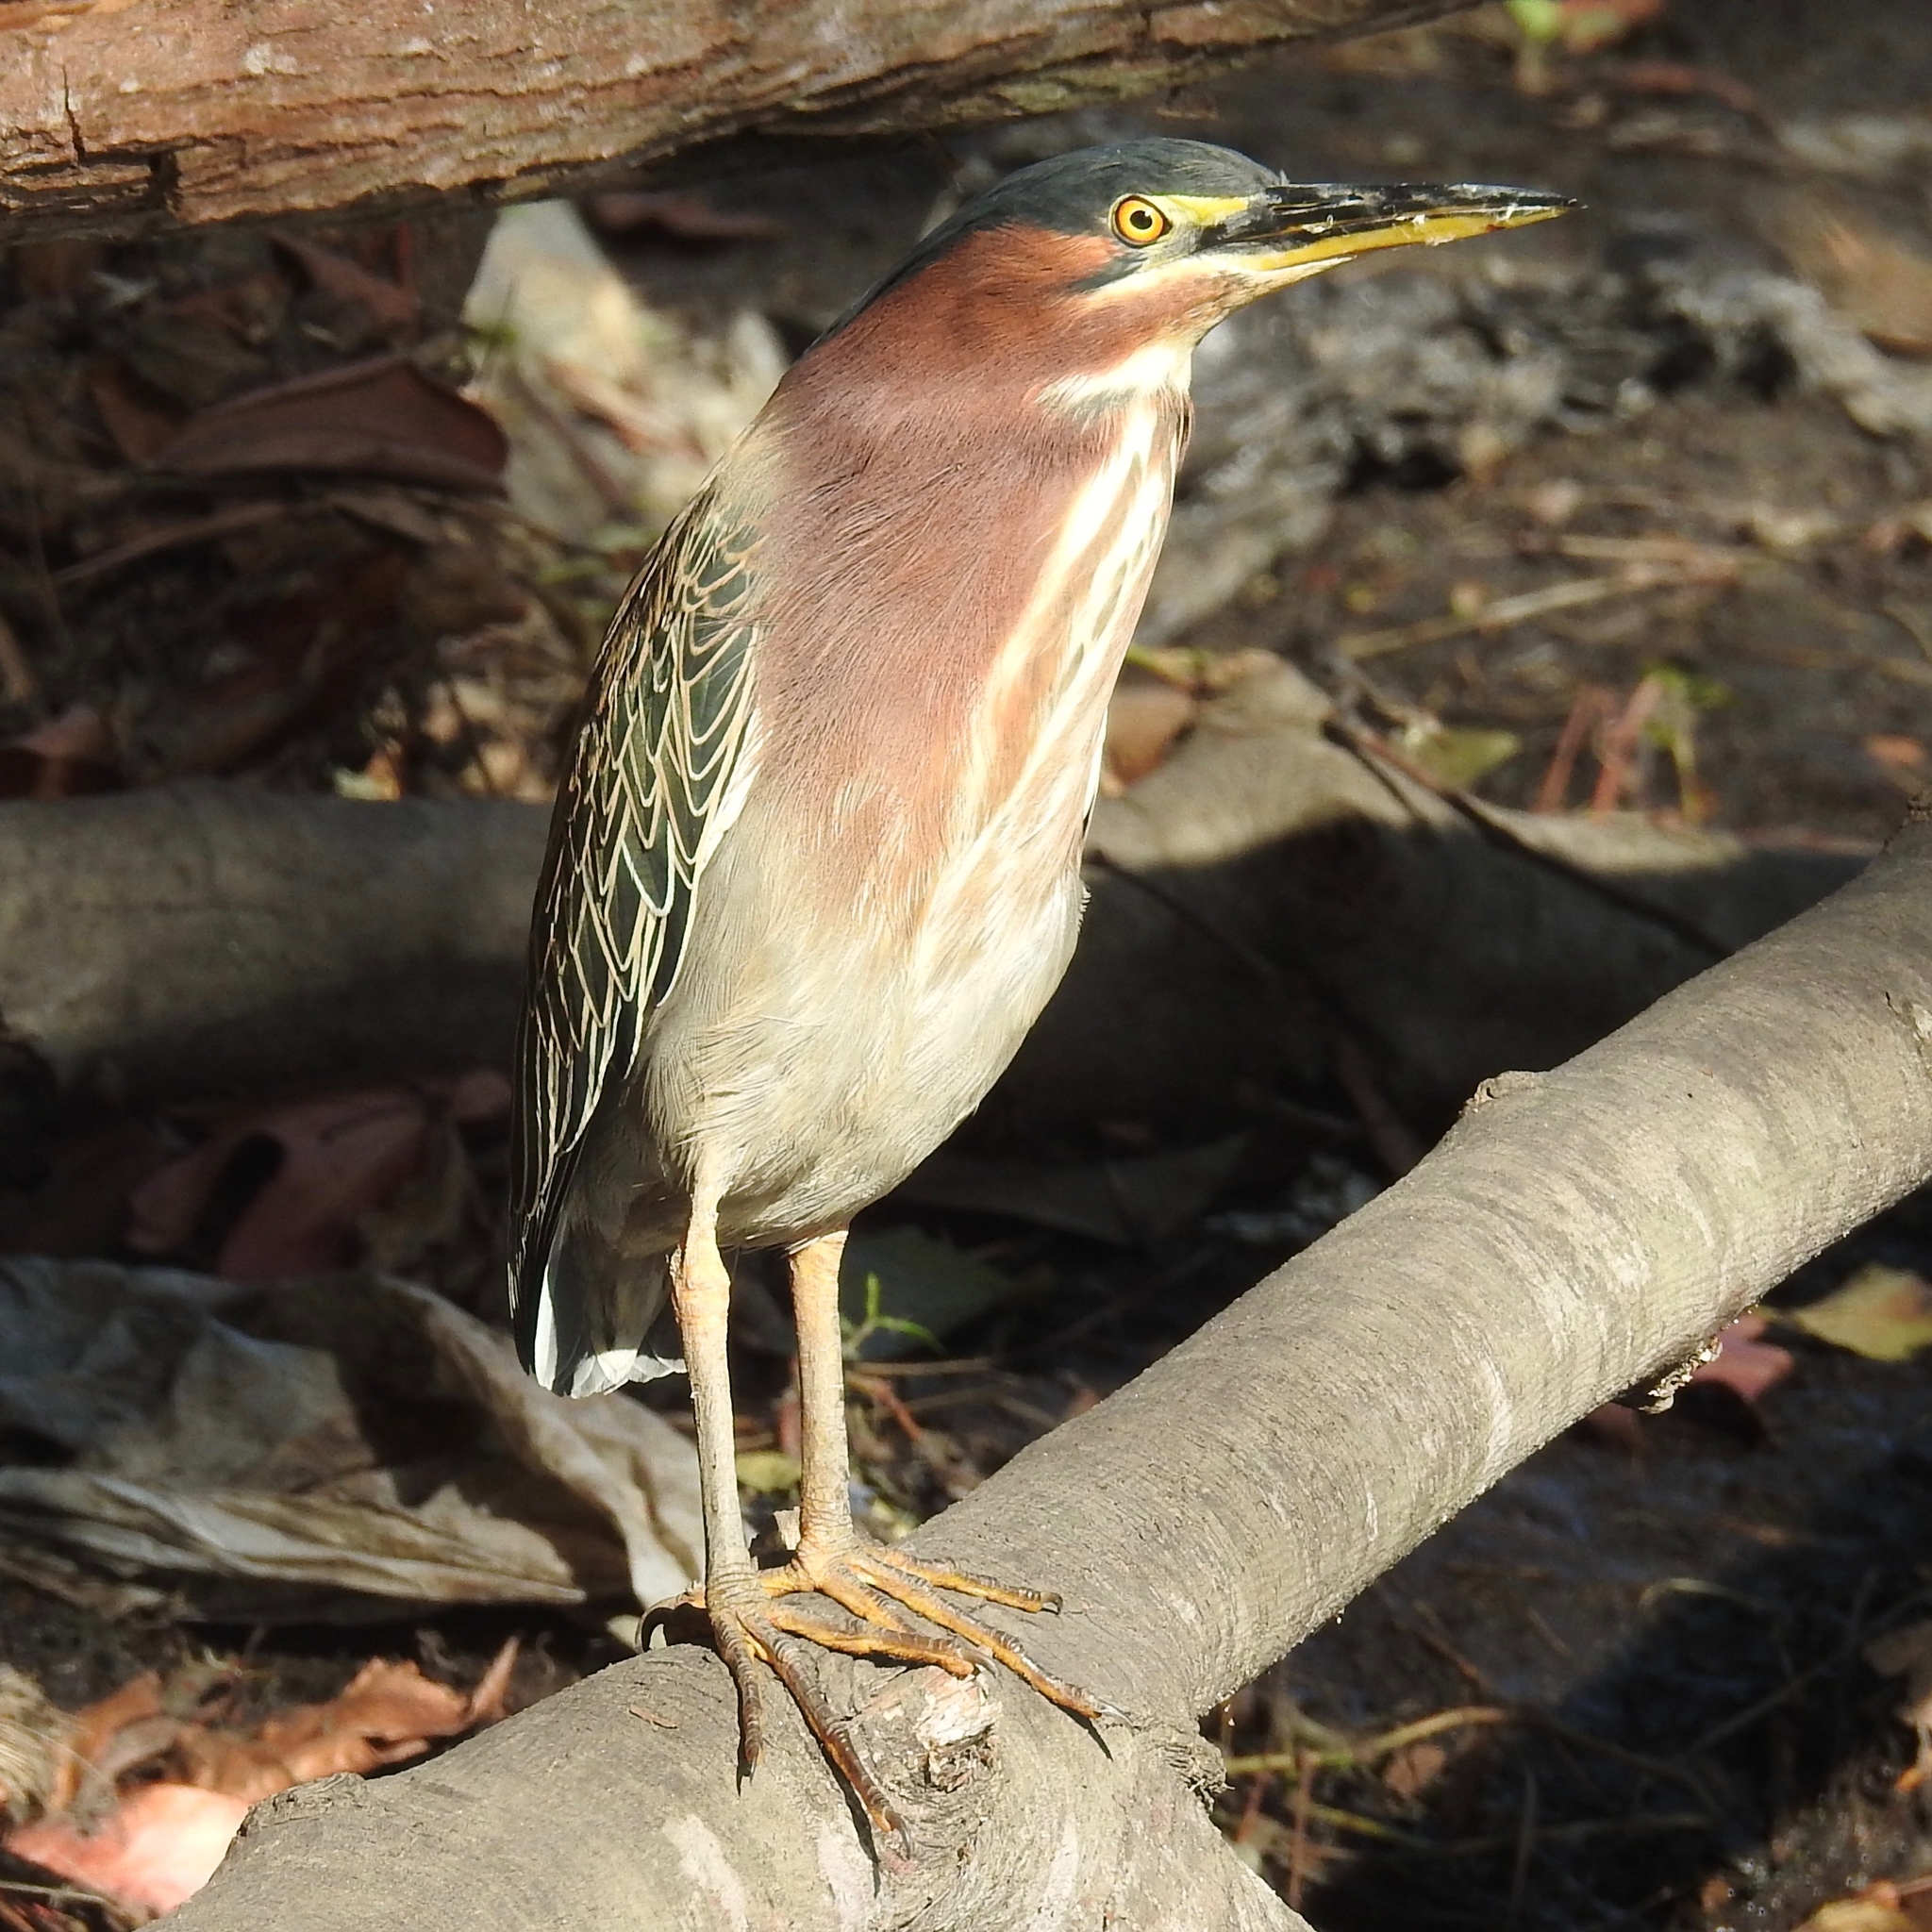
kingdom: Animalia
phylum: Chordata
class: Aves
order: Pelecaniformes
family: Ardeidae
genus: Butorides
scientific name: Butorides virescens
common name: Green heron
